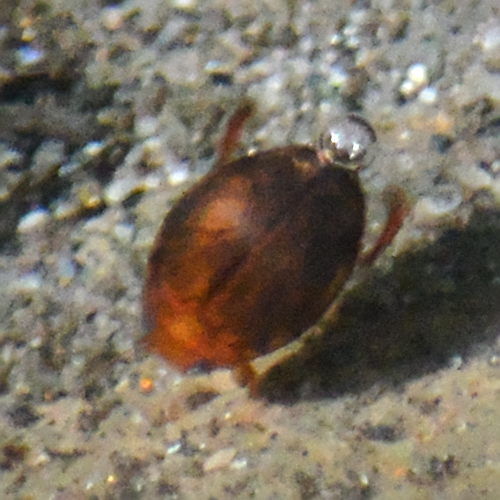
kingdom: Animalia
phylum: Arthropoda
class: Insecta
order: Coleoptera
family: Dytiscidae
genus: Hyphydrus
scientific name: Hyphydrus ovatus
